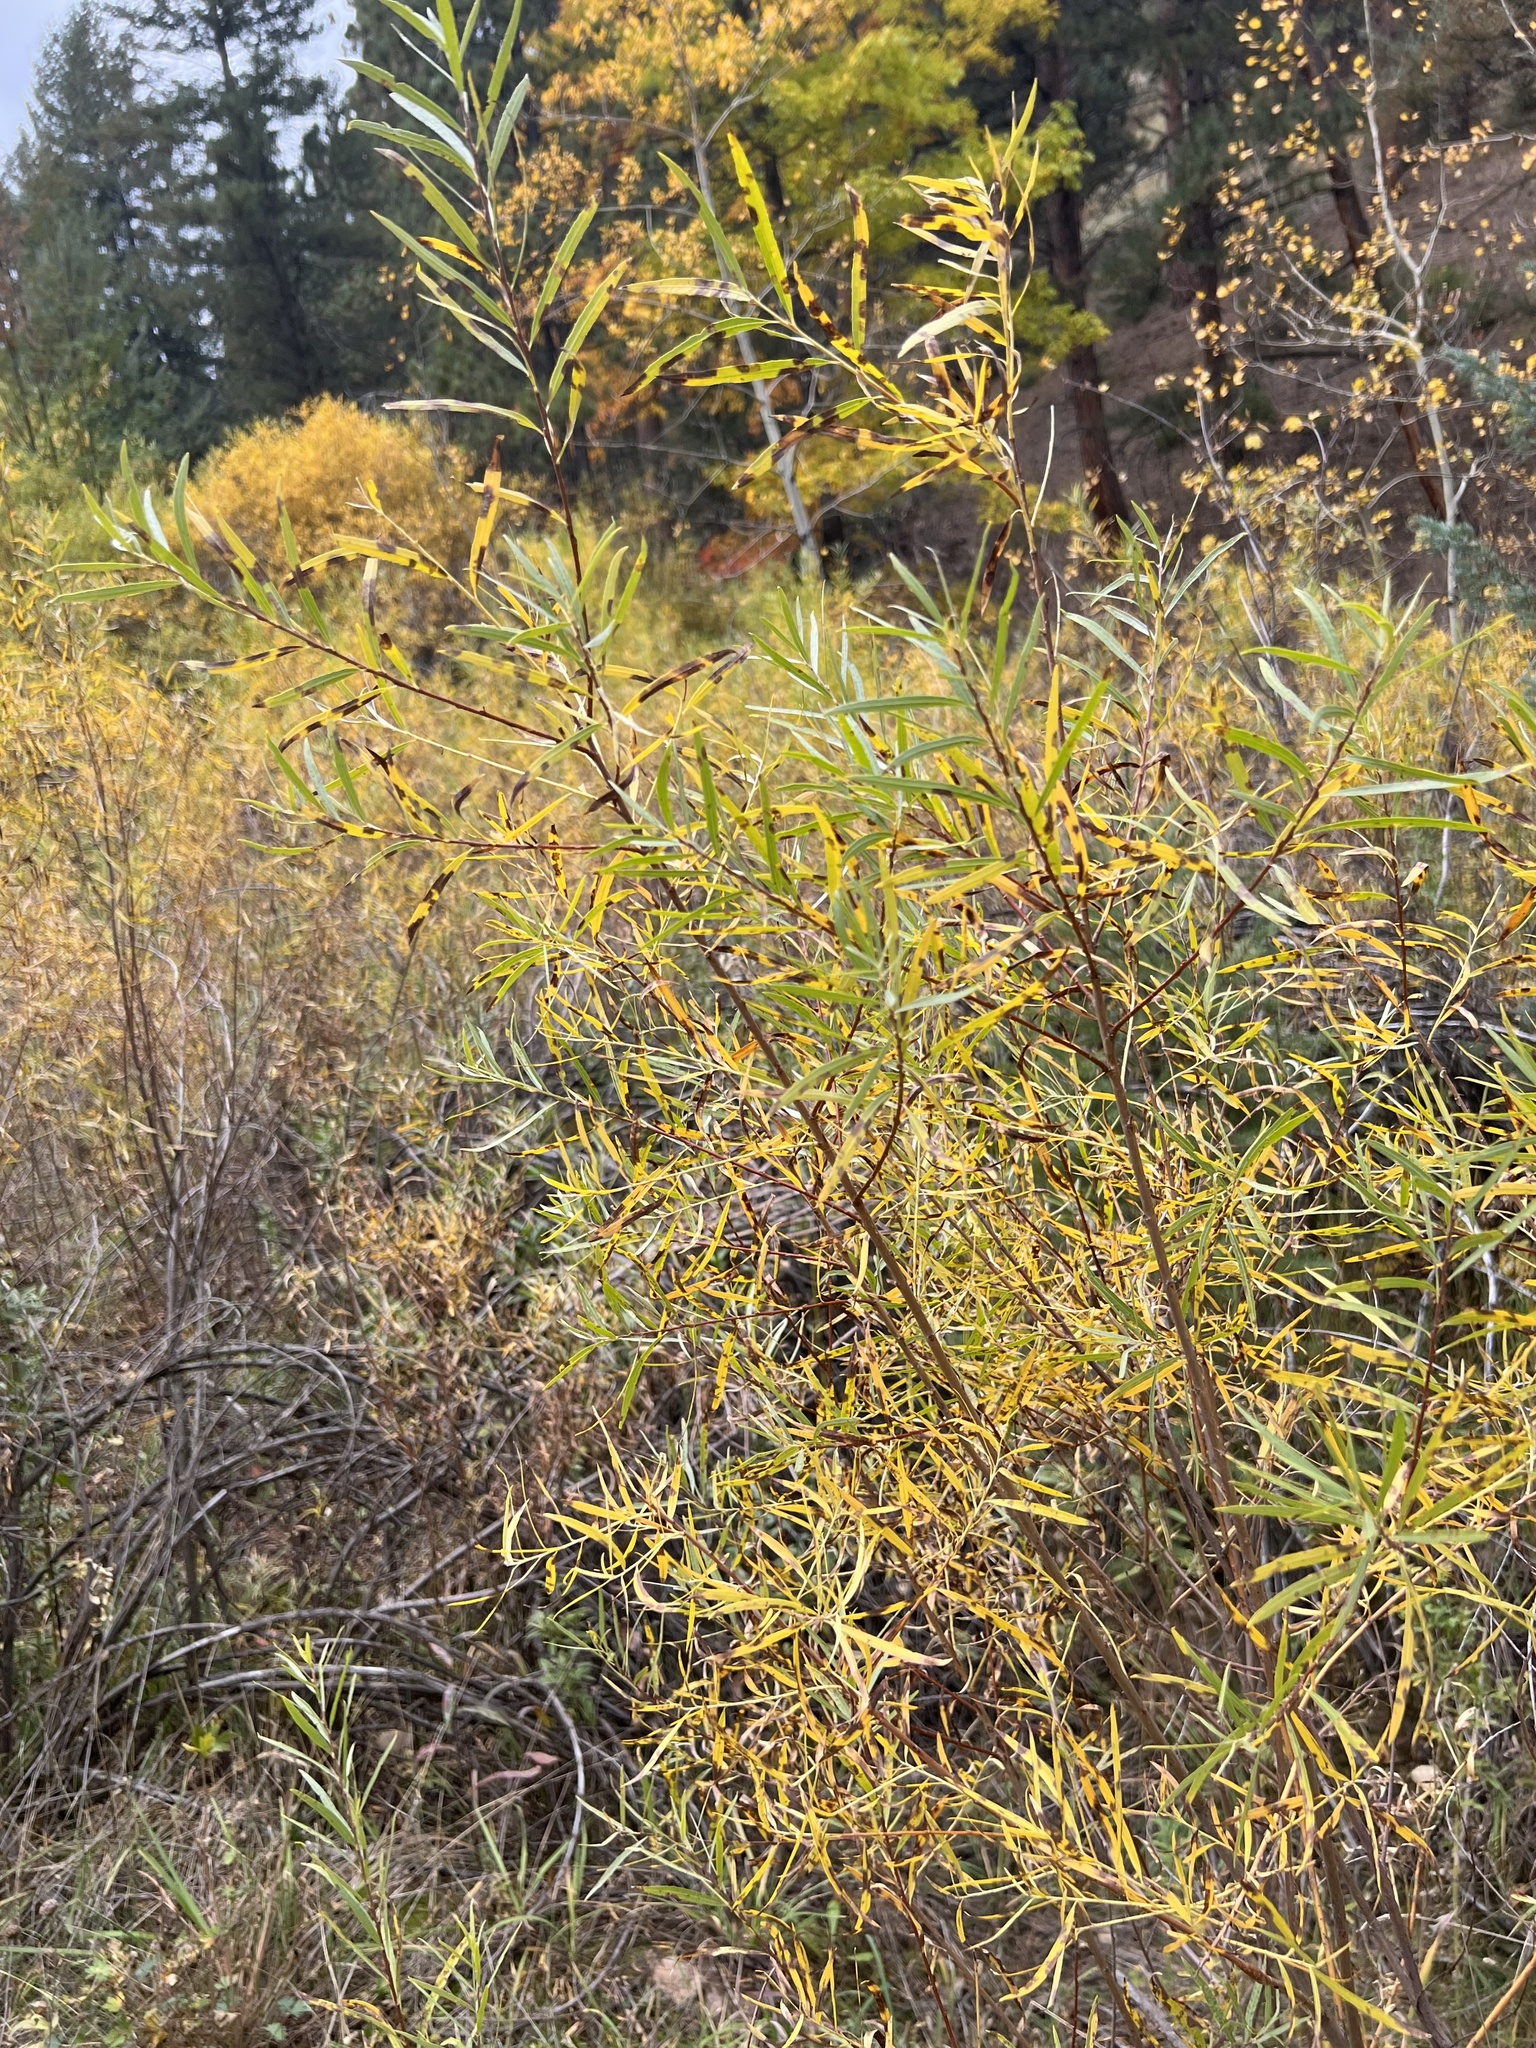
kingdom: Plantae
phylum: Tracheophyta
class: Magnoliopsida
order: Malpighiales
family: Salicaceae
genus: Salix
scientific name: Salix exigua
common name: Coyote willow
